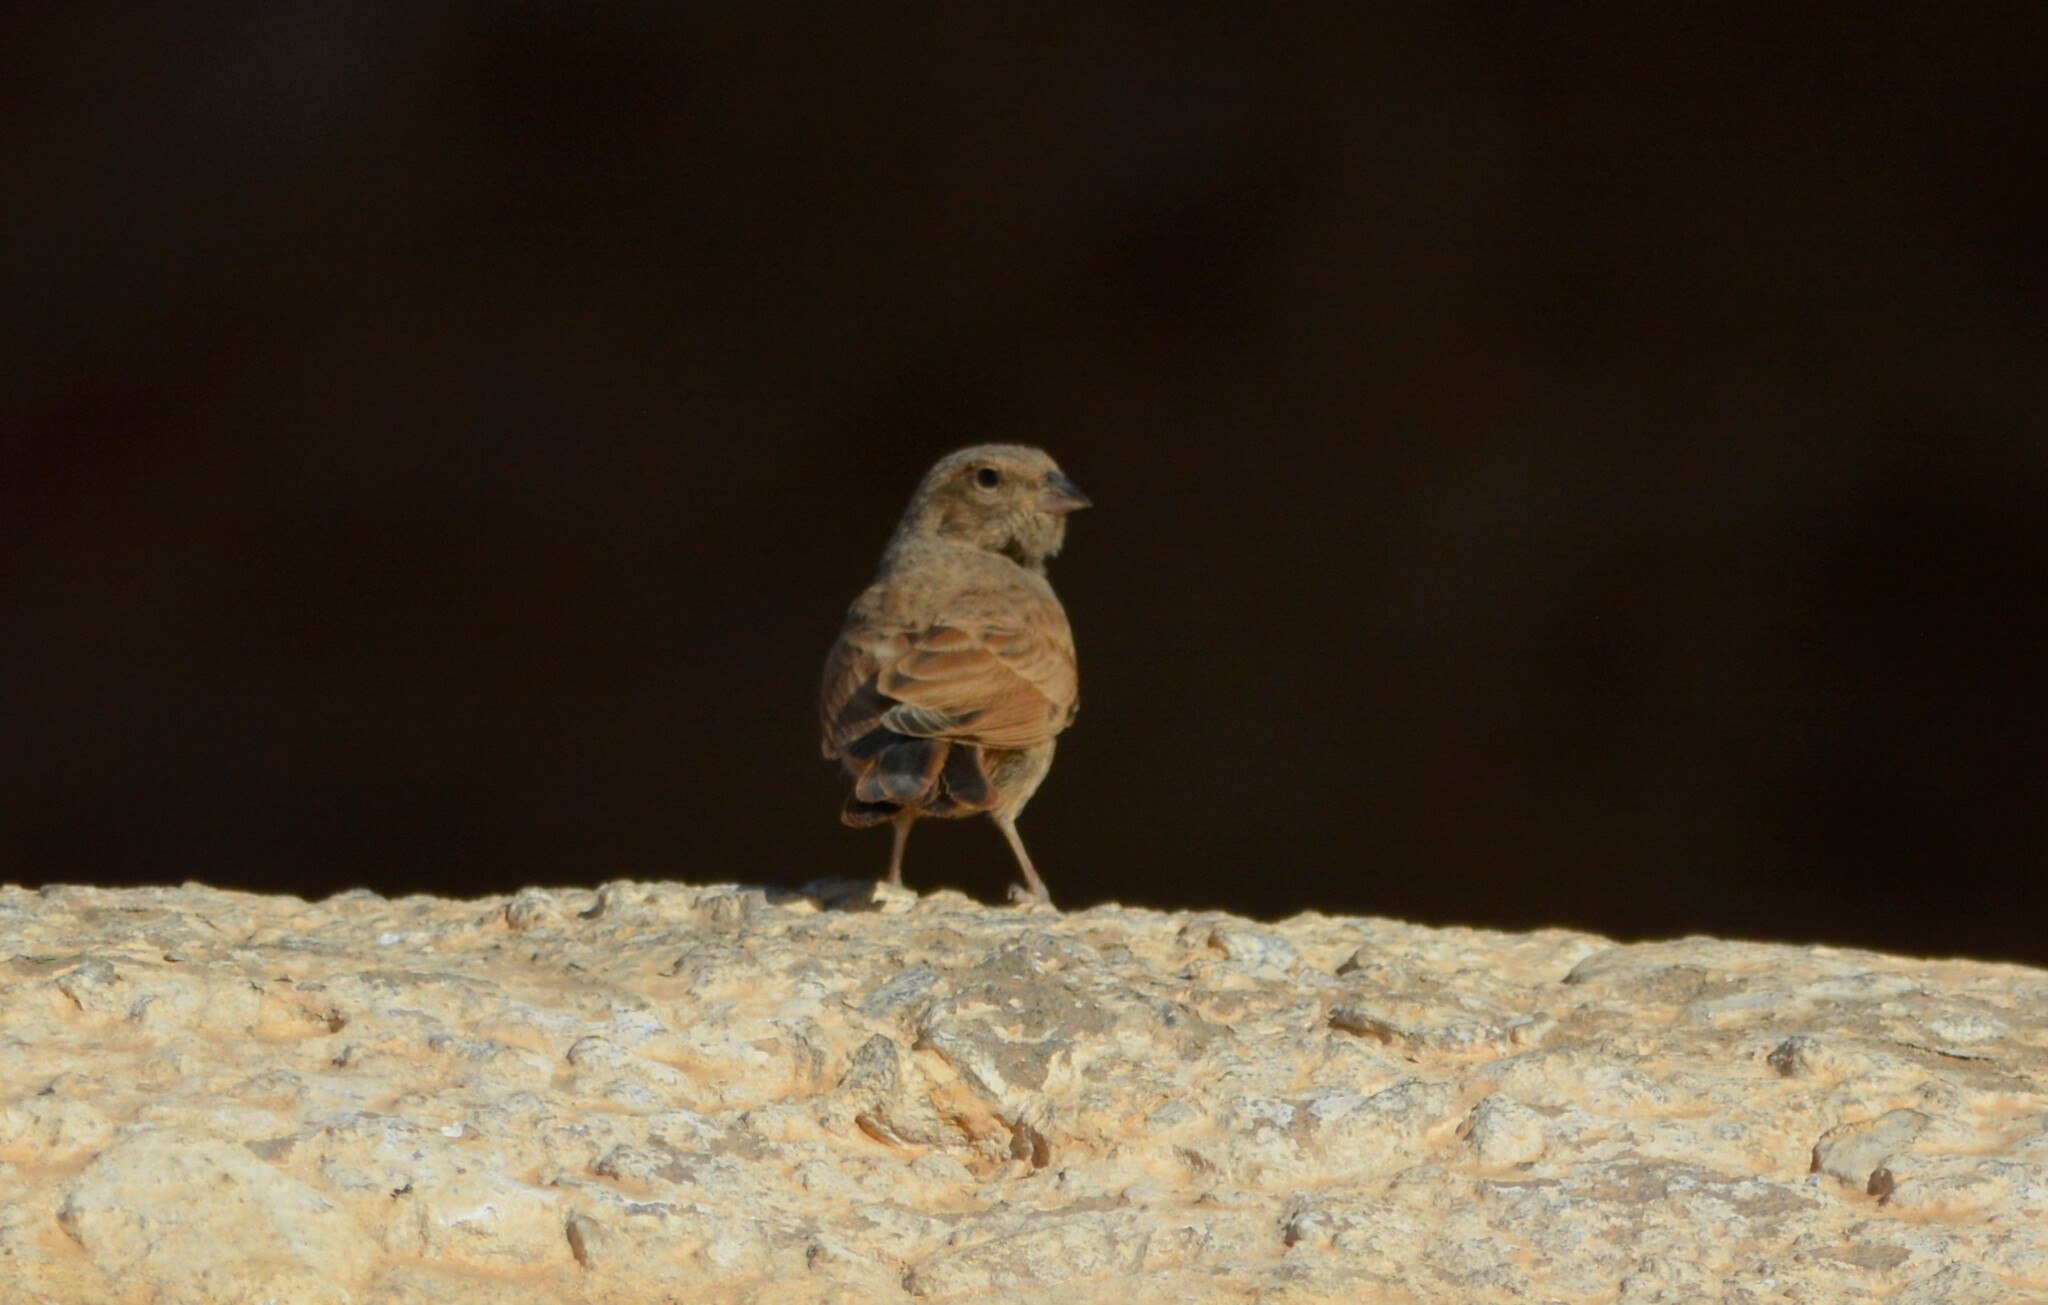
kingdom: Animalia
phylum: Chordata
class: Aves
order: Passeriformes
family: Emberizidae
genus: Emberiza
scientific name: Emberiza sahari
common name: House bunting
